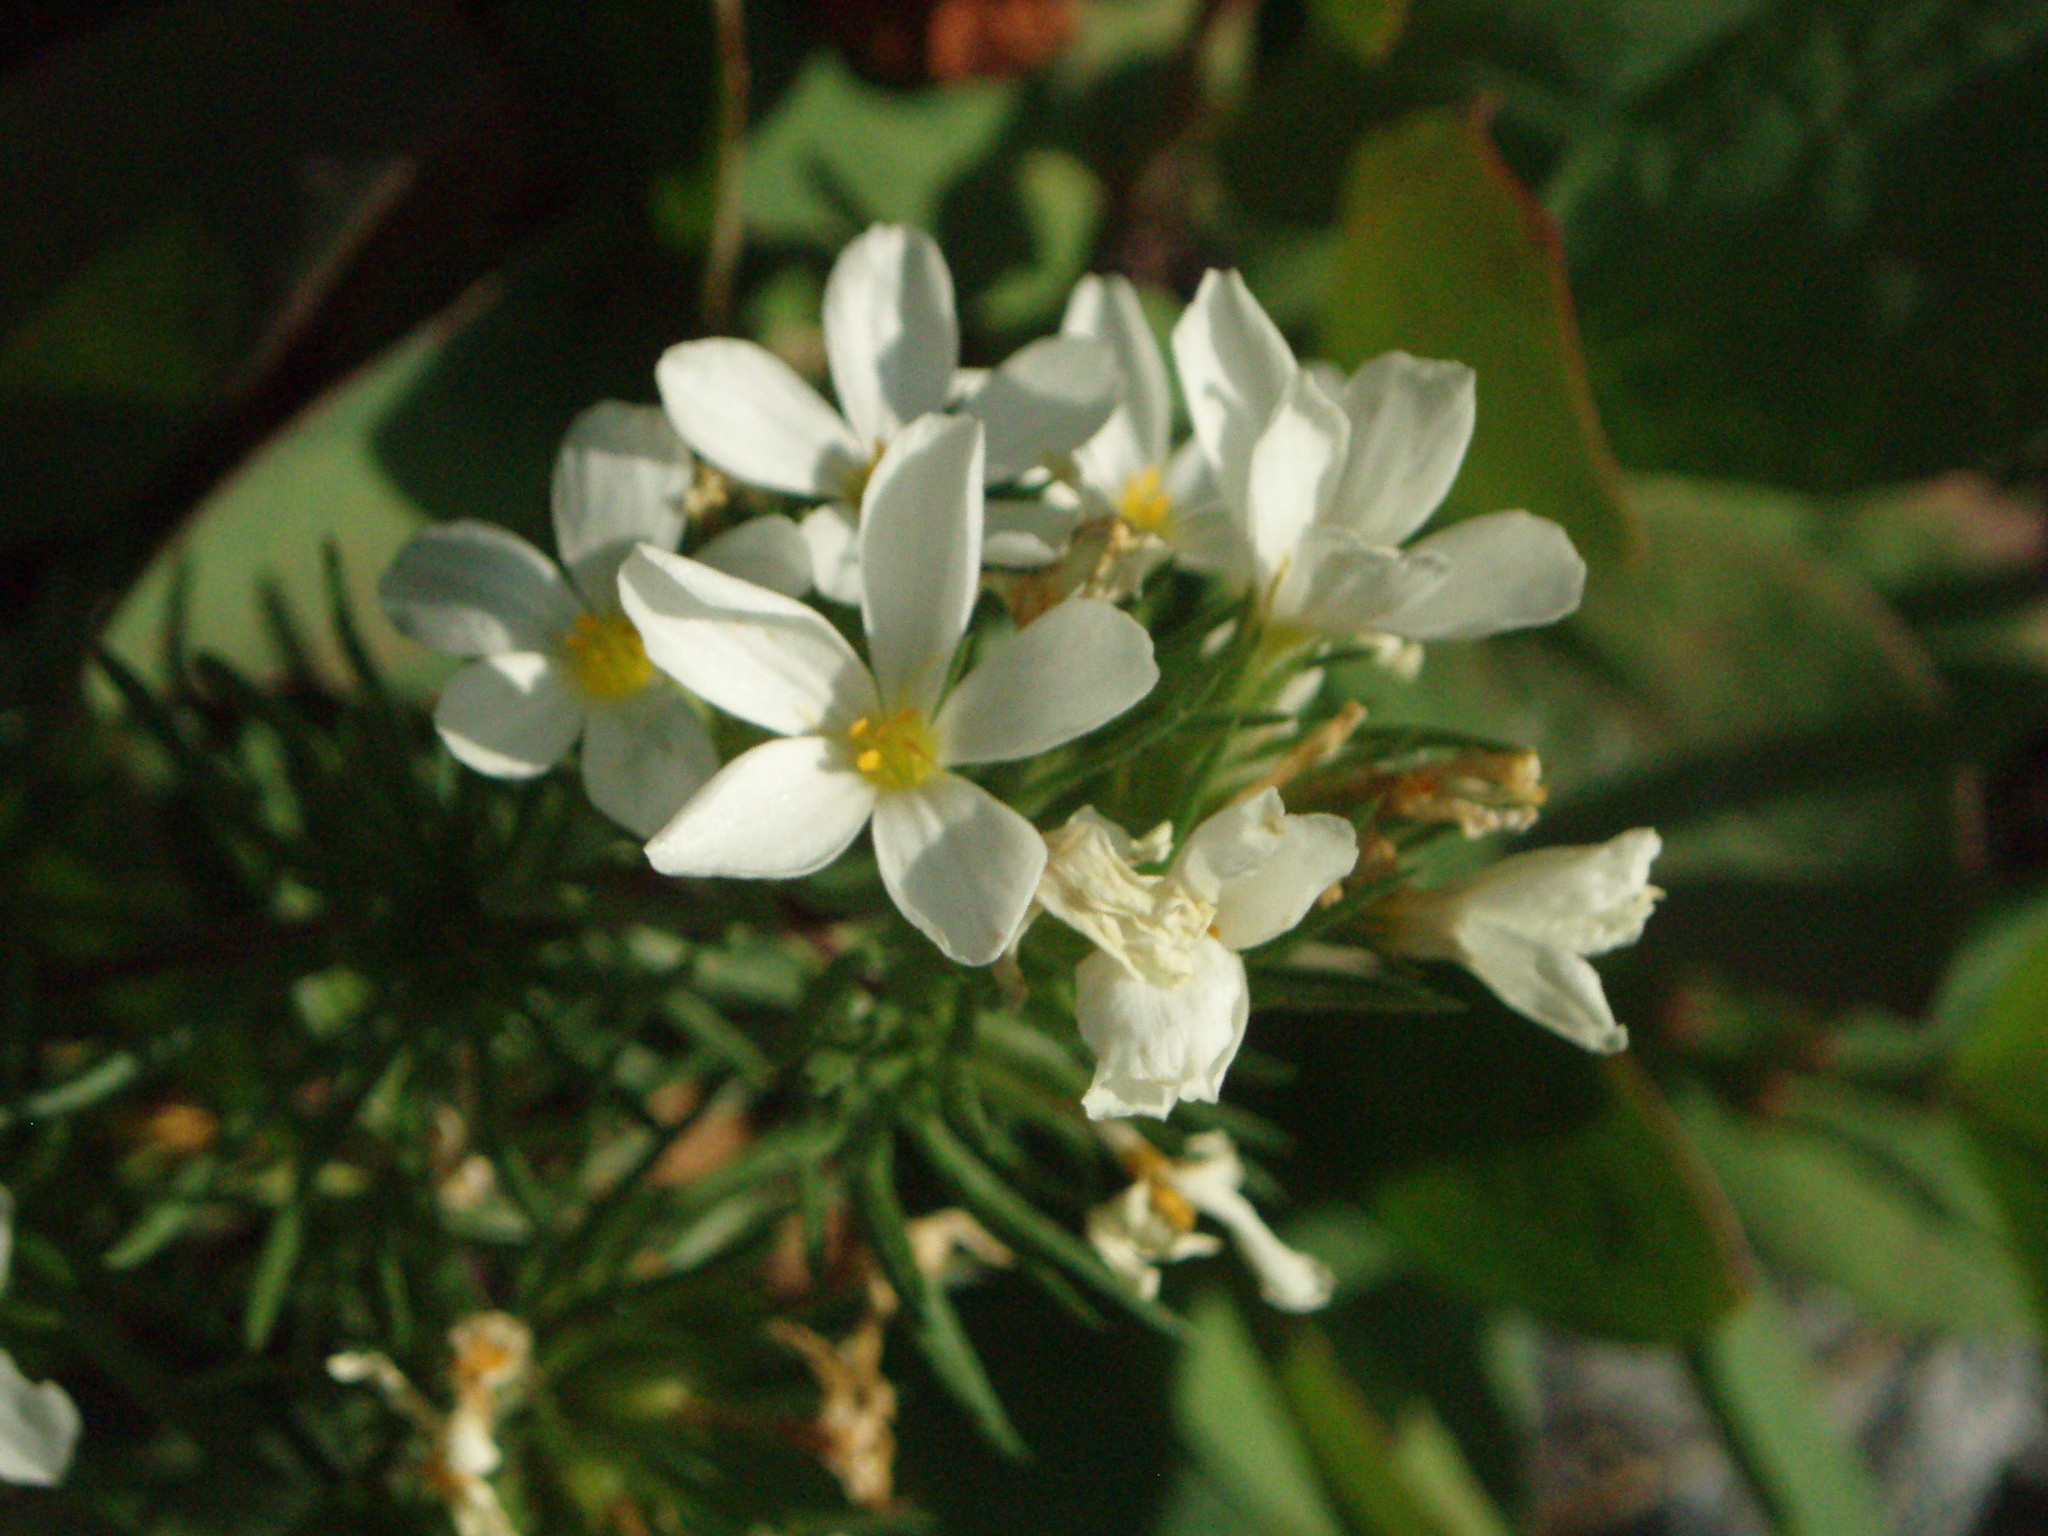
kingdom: Plantae
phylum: Tracheophyta
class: Magnoliopsida
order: Ericales
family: Polemoniaceae
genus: Leptosiphon
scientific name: Leptosiphon nuttallii
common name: Nuttall's linanthus
